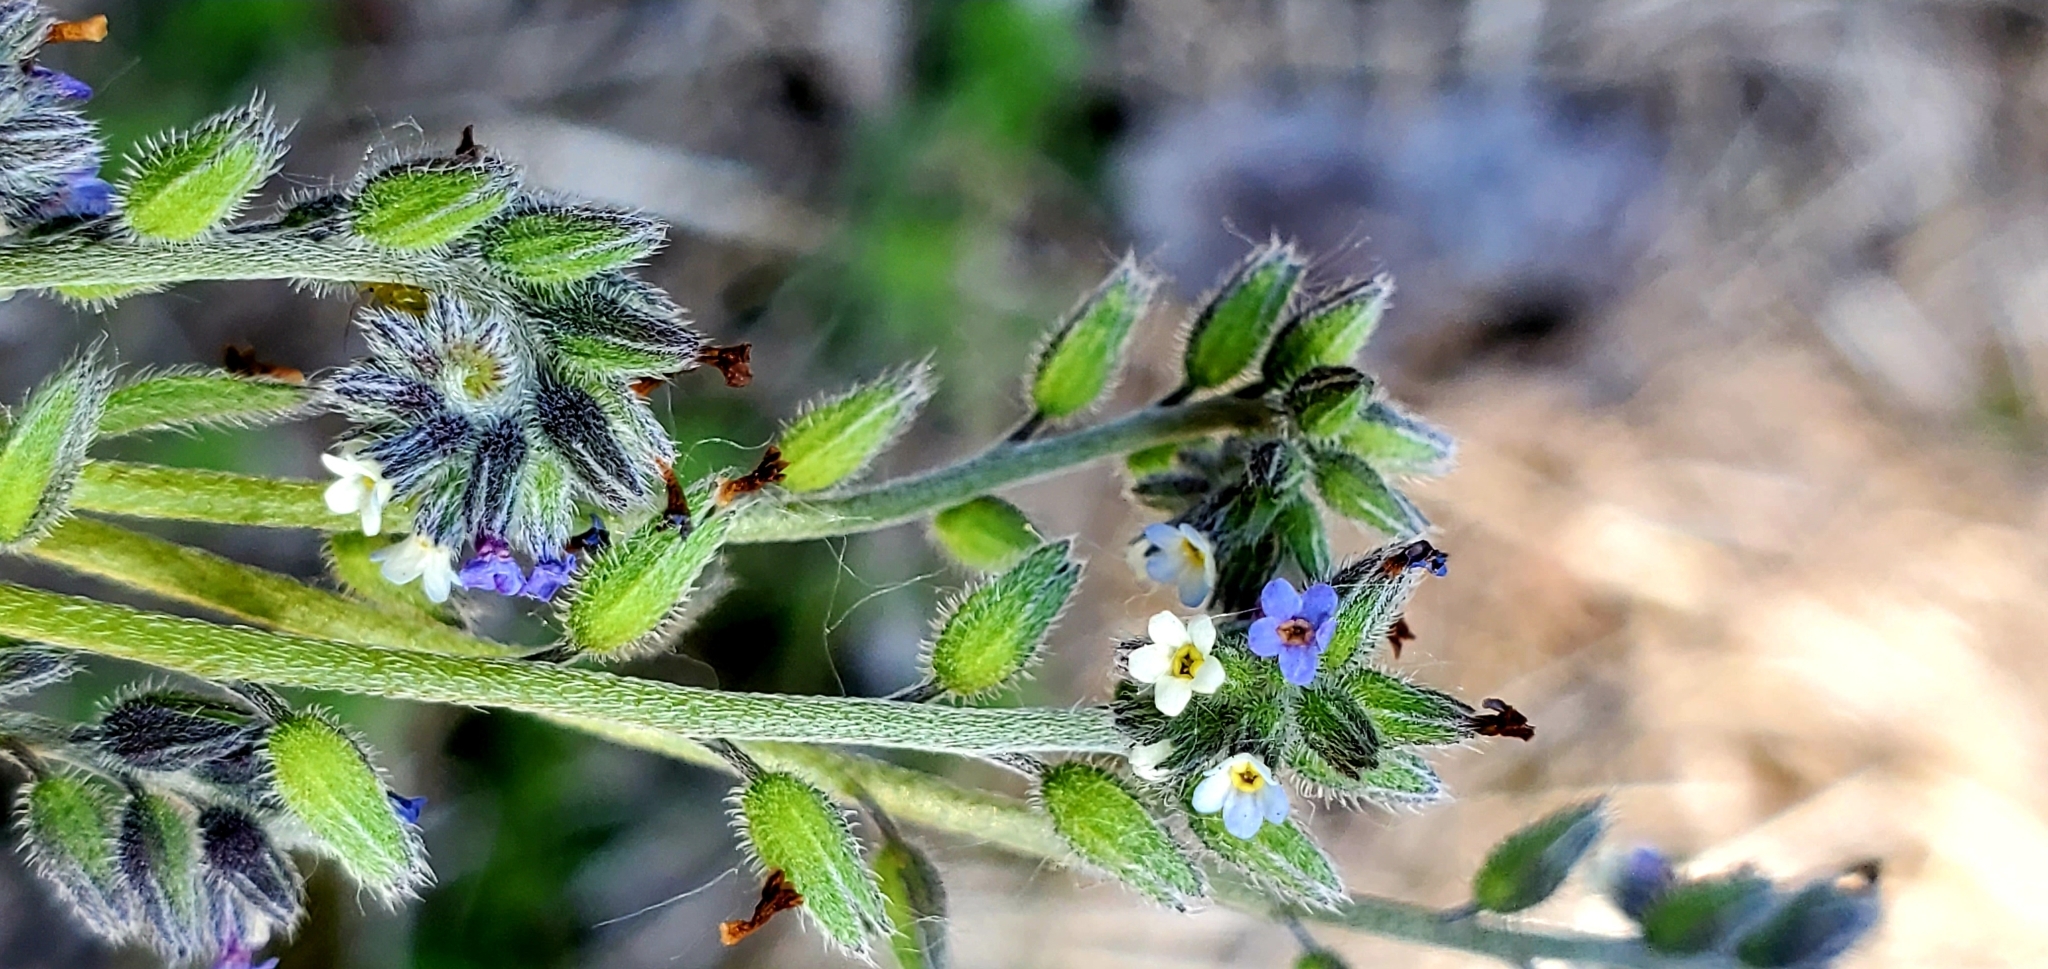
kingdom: Plantae
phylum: Tracheophyta
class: Magnoliopsida
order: Boraginales
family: Boraginaceae
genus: Myosotis
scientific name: Myosotis discolor
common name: Changing forget-me-not
